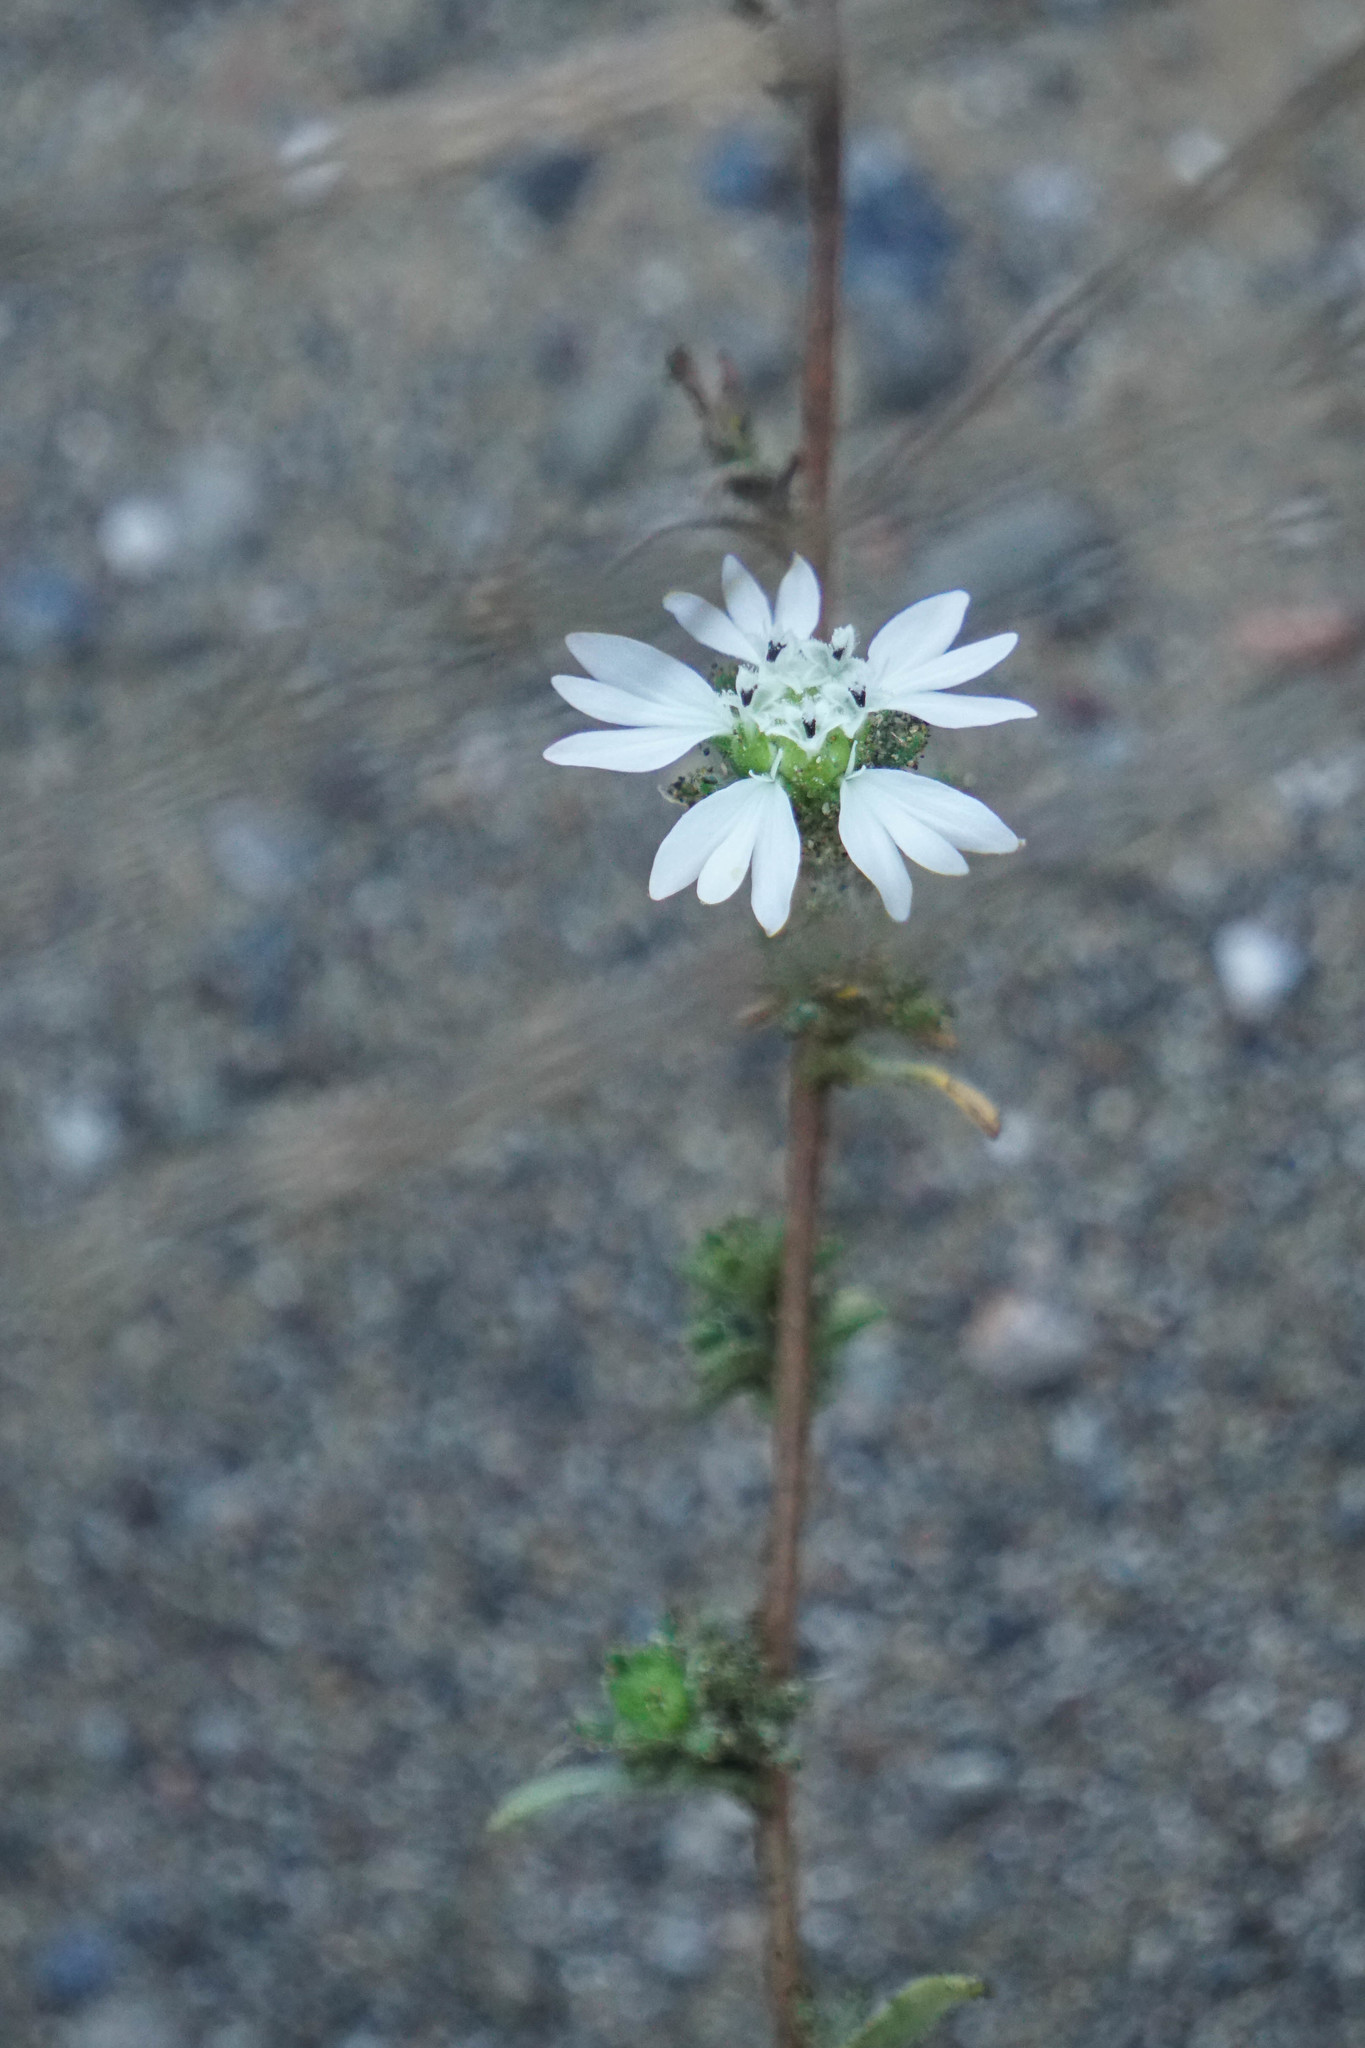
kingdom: Plantae
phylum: Tracheophyta
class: Magnoliopsida
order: Asterales
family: Asteraceae
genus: Hemizonia
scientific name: Hemizonia congesta
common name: Hayfield tarweed
